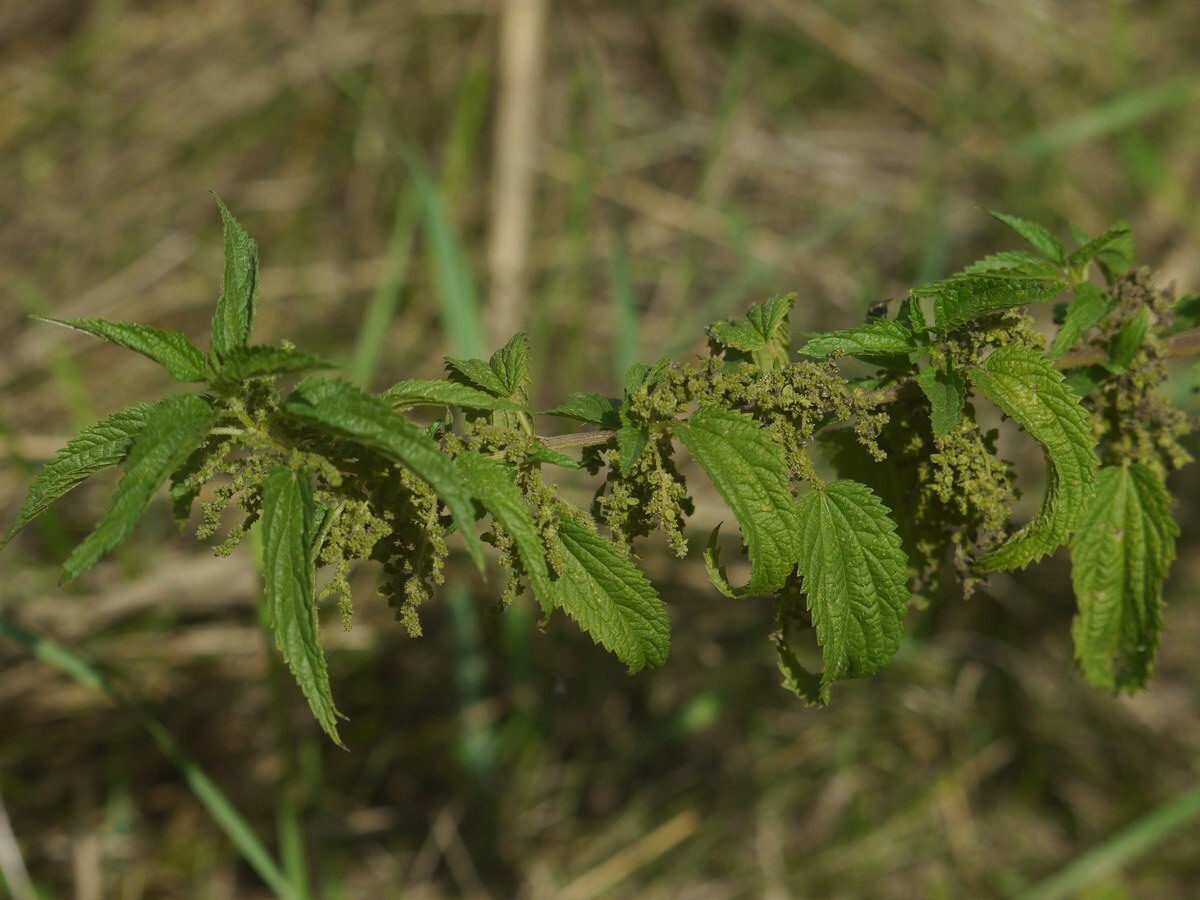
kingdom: Plantae
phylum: Tracheophyta
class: Magnoliopsida
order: Rosales
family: Urticaceae
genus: Urtica
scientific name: Urtica dioica
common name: Common nettle
